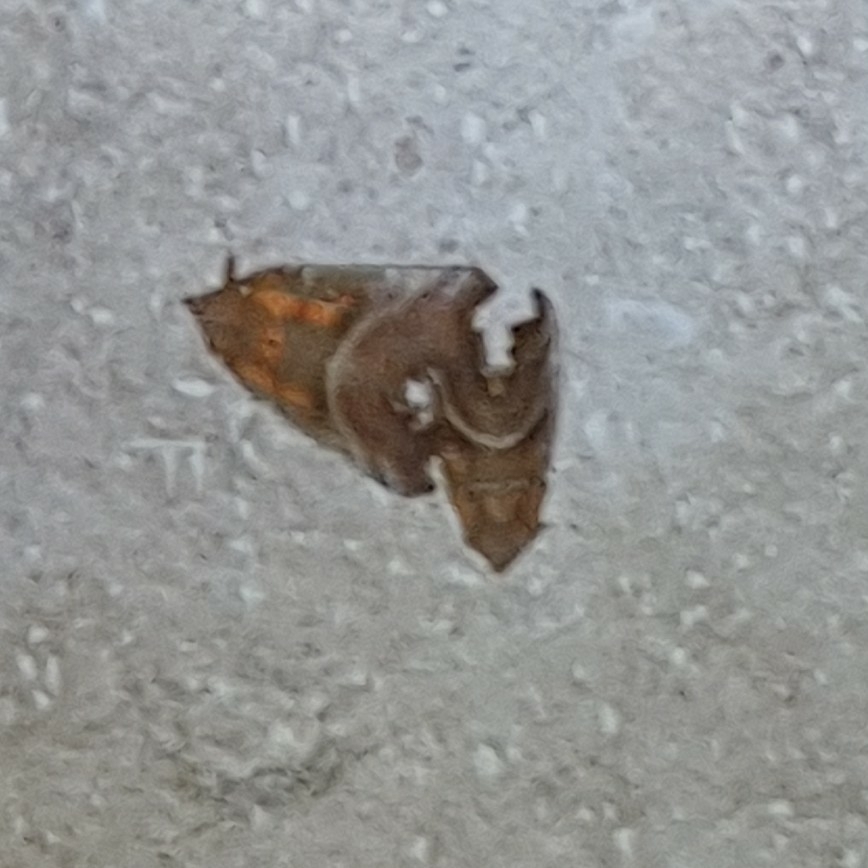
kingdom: Animalia
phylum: Arthropoda
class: Insecta
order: Lepidoptera
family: Erebidae
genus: Scoliopteryx
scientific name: Scoliopteryx libatrix
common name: Herald
